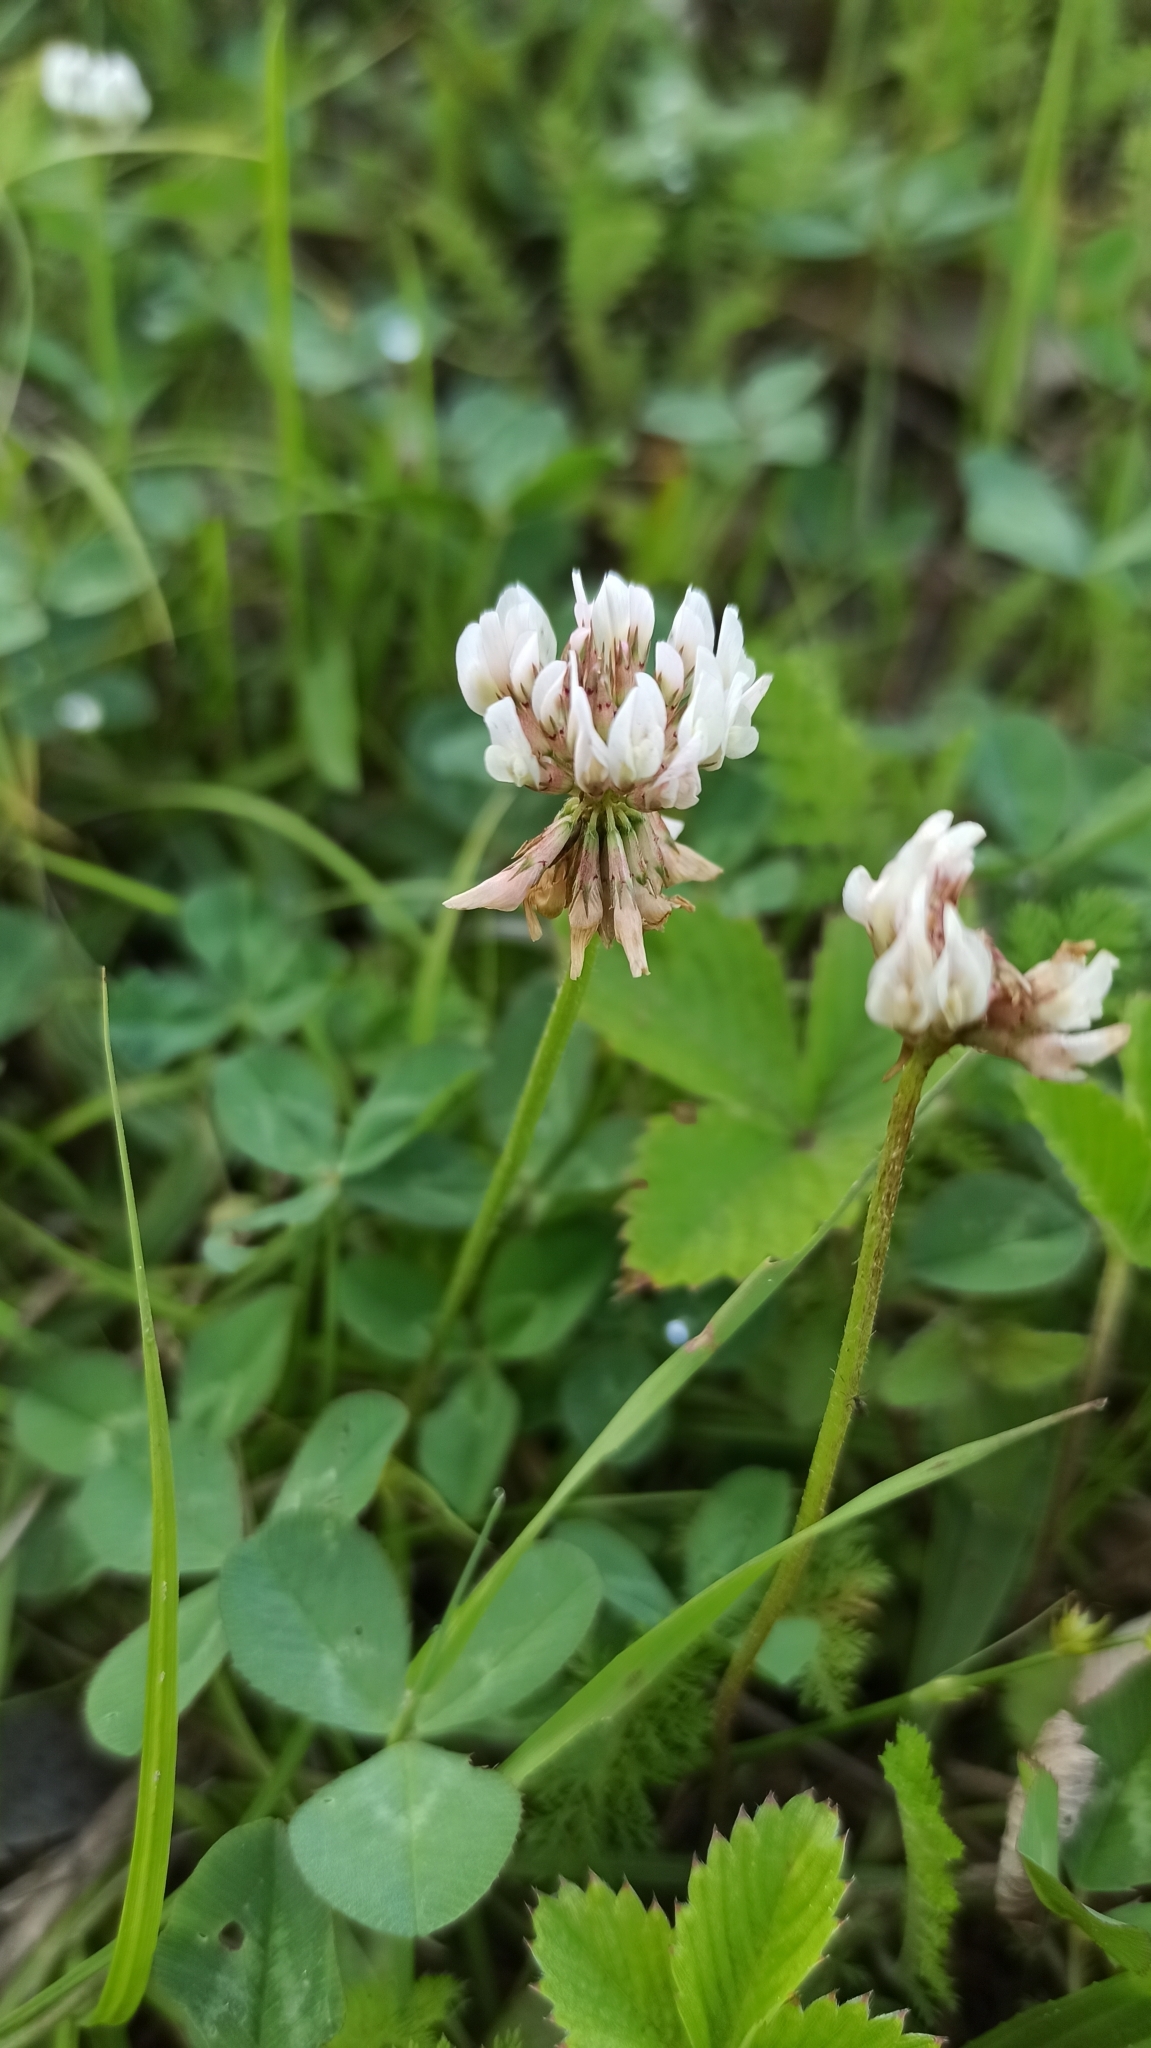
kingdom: Plantae
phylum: Tracheophyta
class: Magnoliopsida
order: Fabales
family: Fabaceae
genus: Trifolium
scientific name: Trifolium repens
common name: White clover
